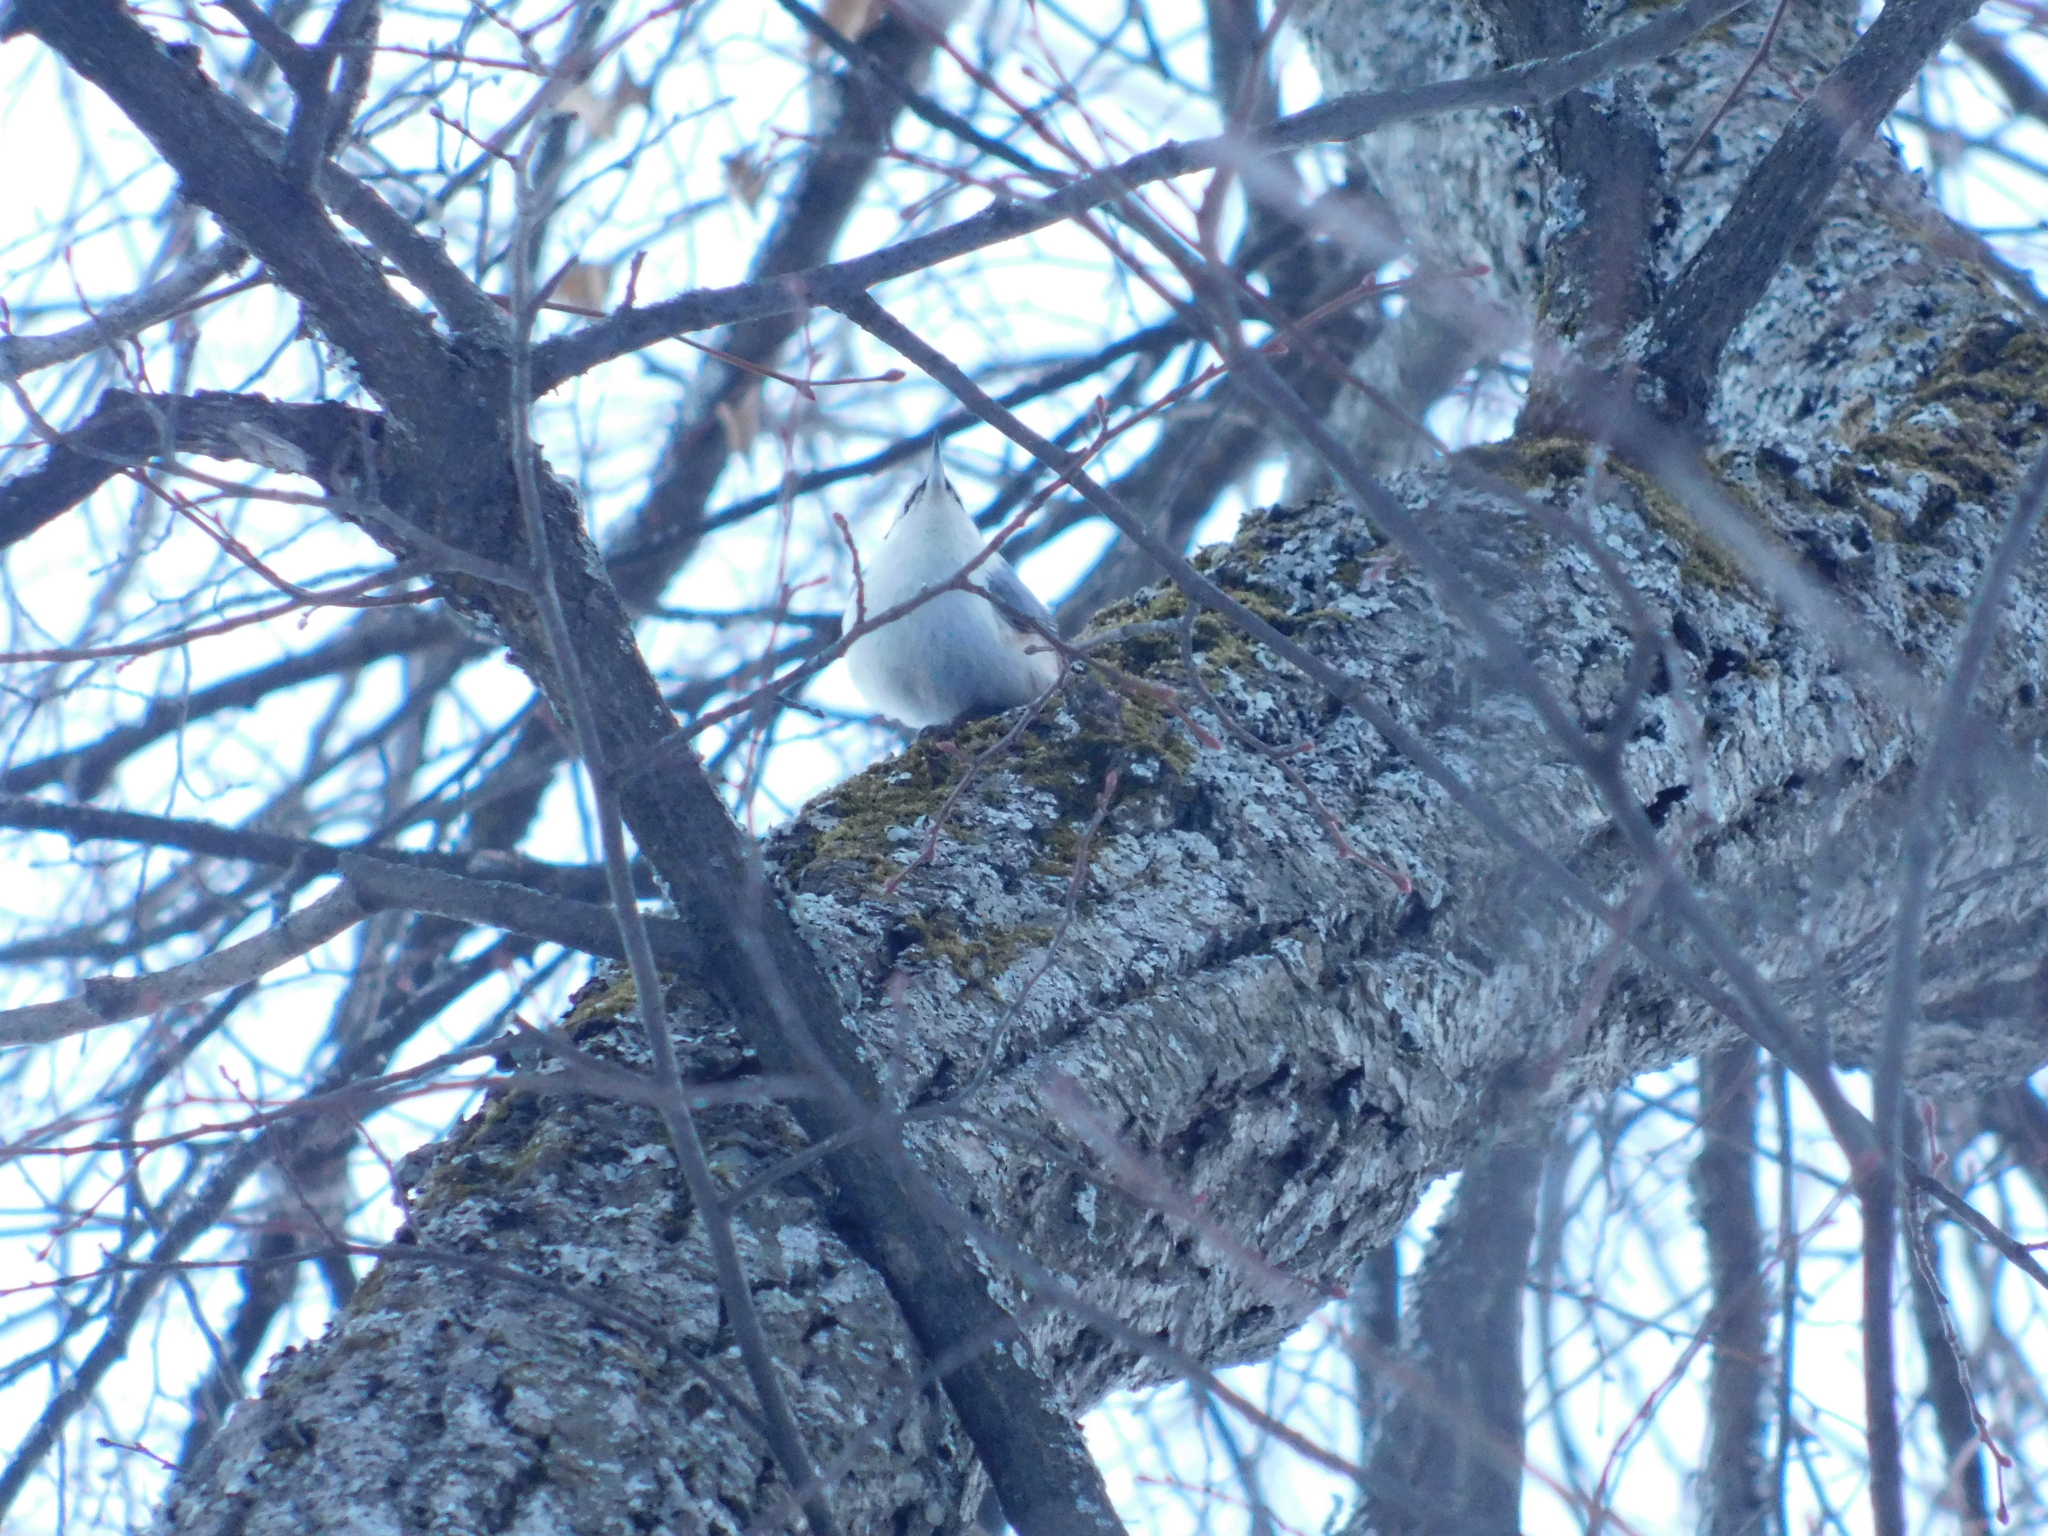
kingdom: Animalia
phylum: Chordata
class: Aves
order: Passeriformes
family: Sittidae
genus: Sitta
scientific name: Sitta europaea
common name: Eurasian nuthatch
